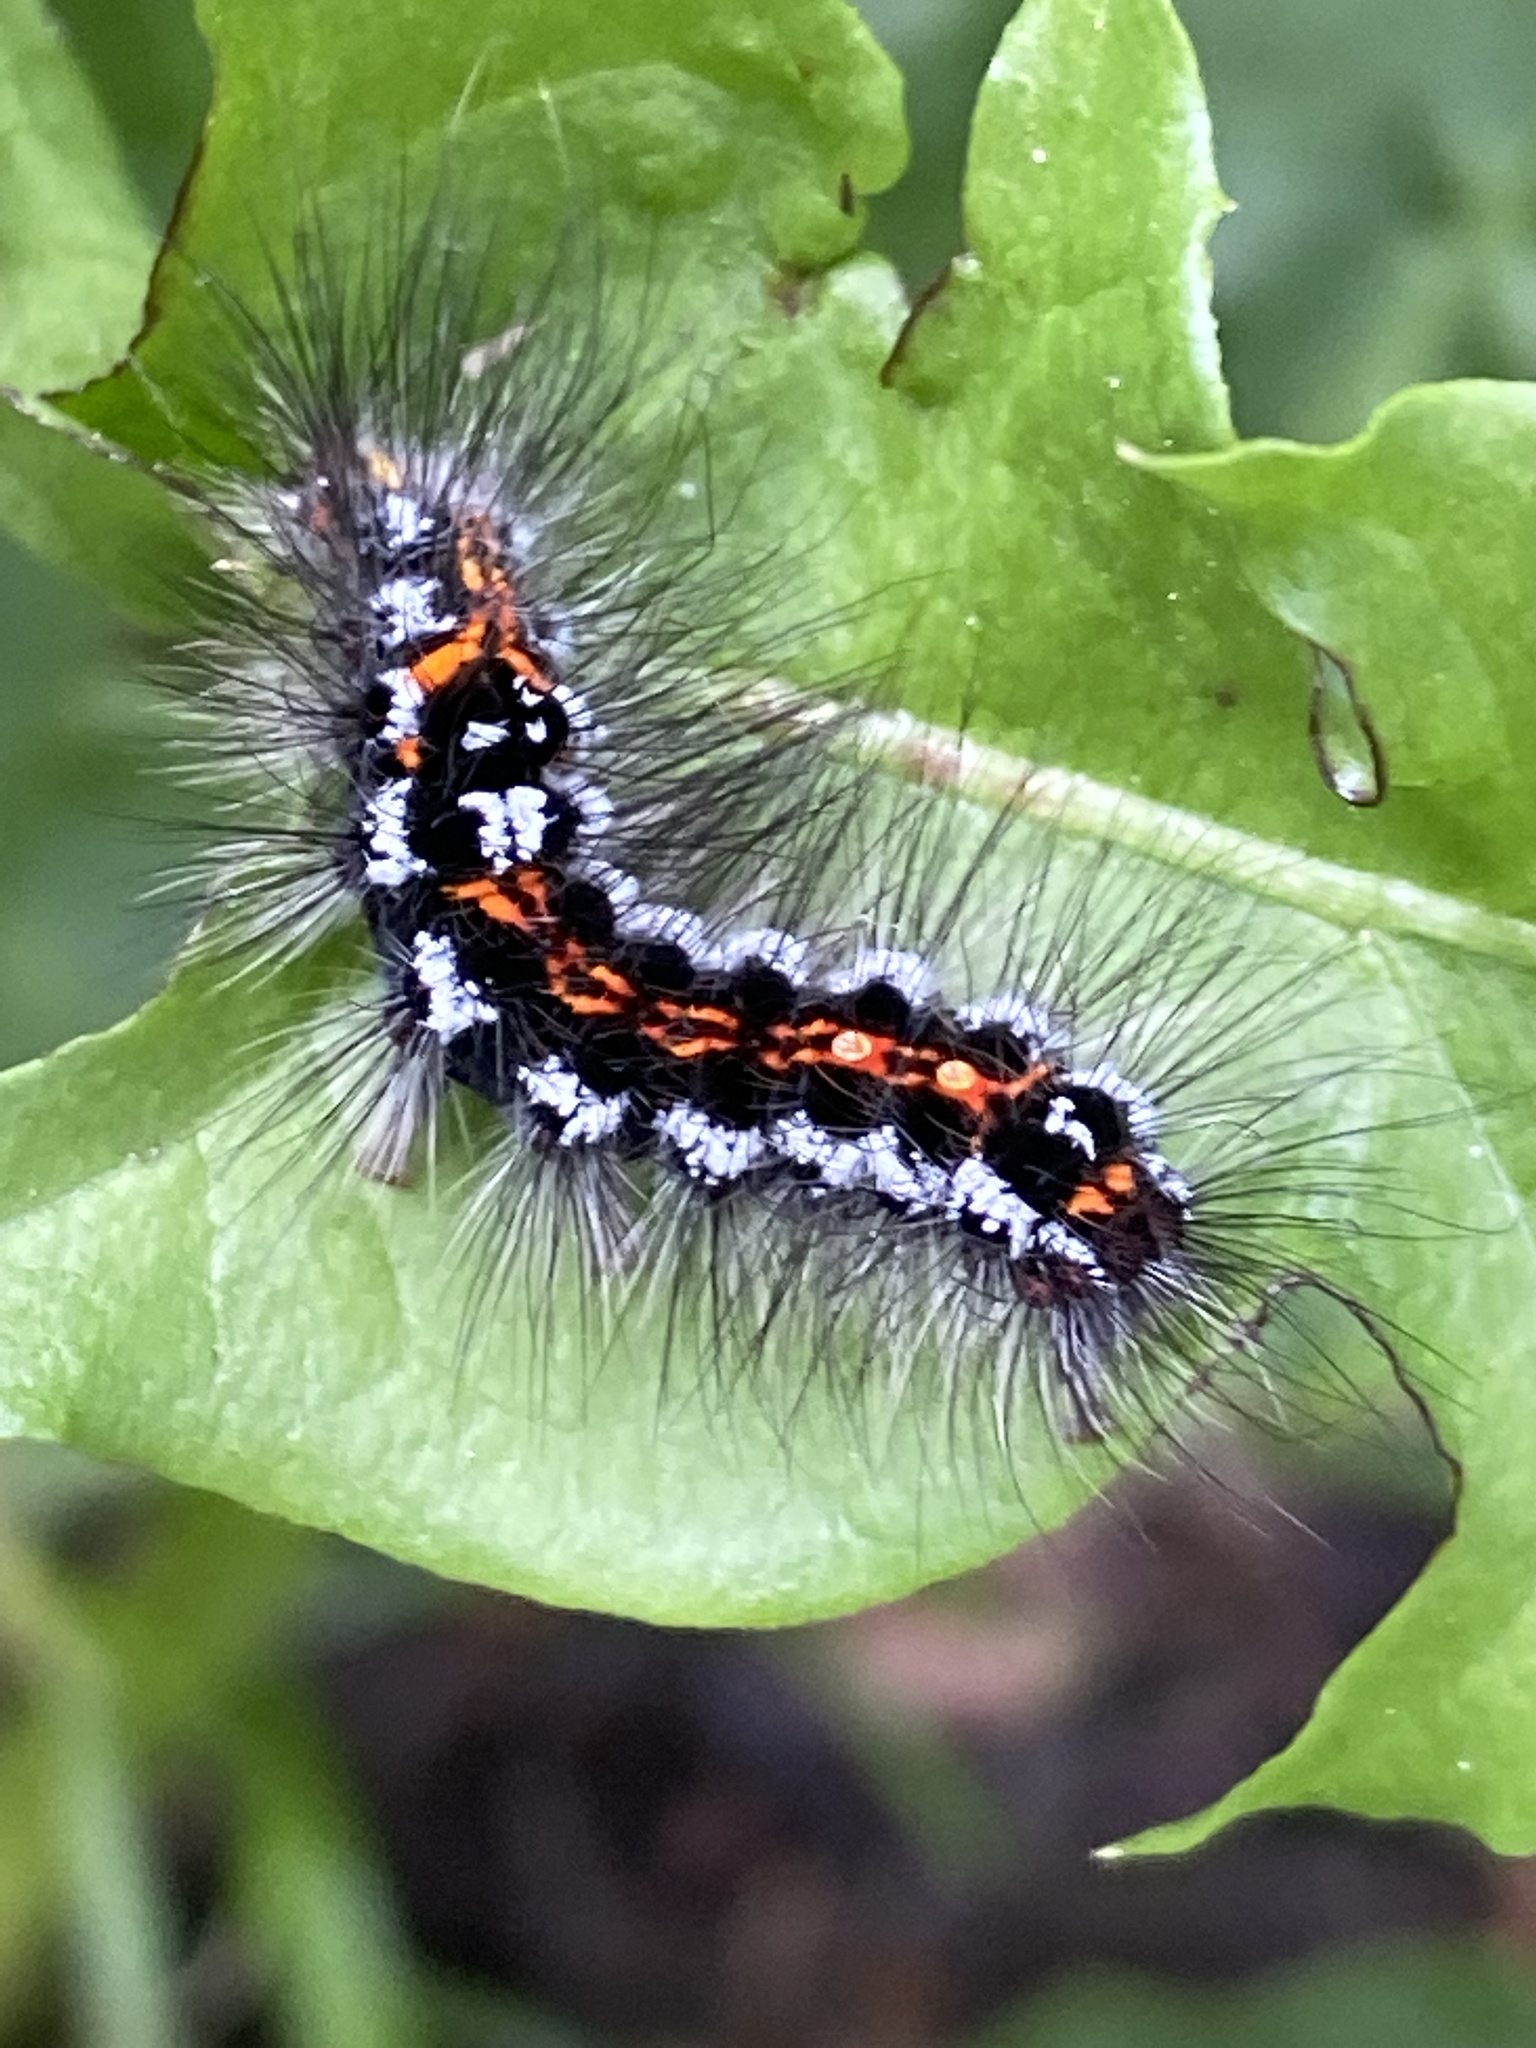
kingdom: Animalia
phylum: Arthropoda
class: Insecta
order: Lepidoptera
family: Erebidae
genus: Sphrageidus
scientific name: Sphrageidus similis
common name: Yellow-tail
